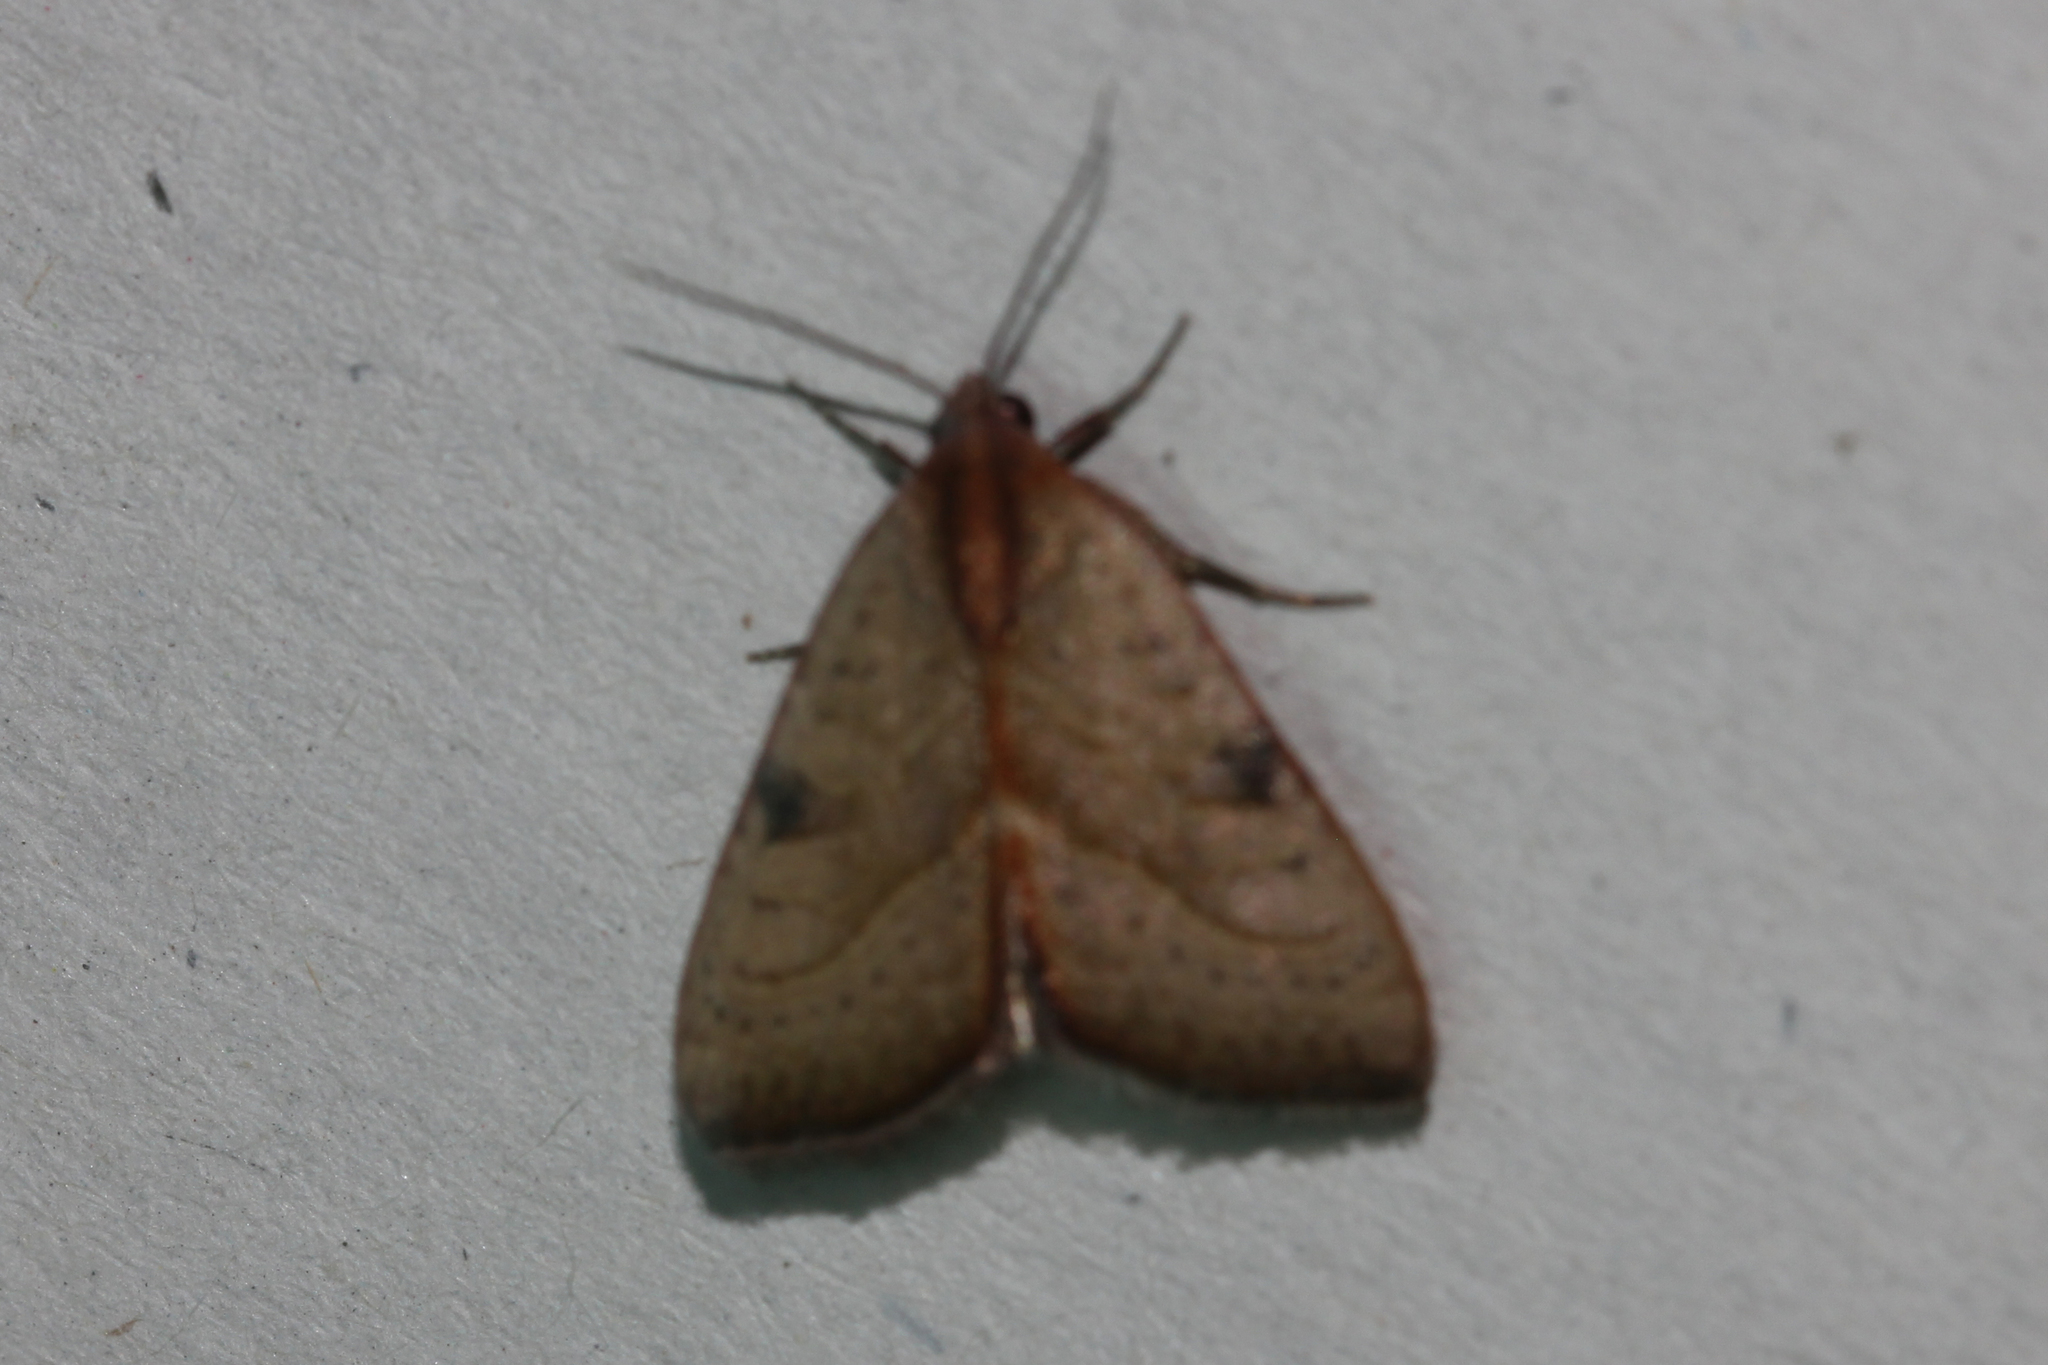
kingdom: Animalia
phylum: Arthropoda
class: Insecta
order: Lepidoptera
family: Noctuidae
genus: Galgula
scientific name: Galgula partita
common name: Wedgeling
